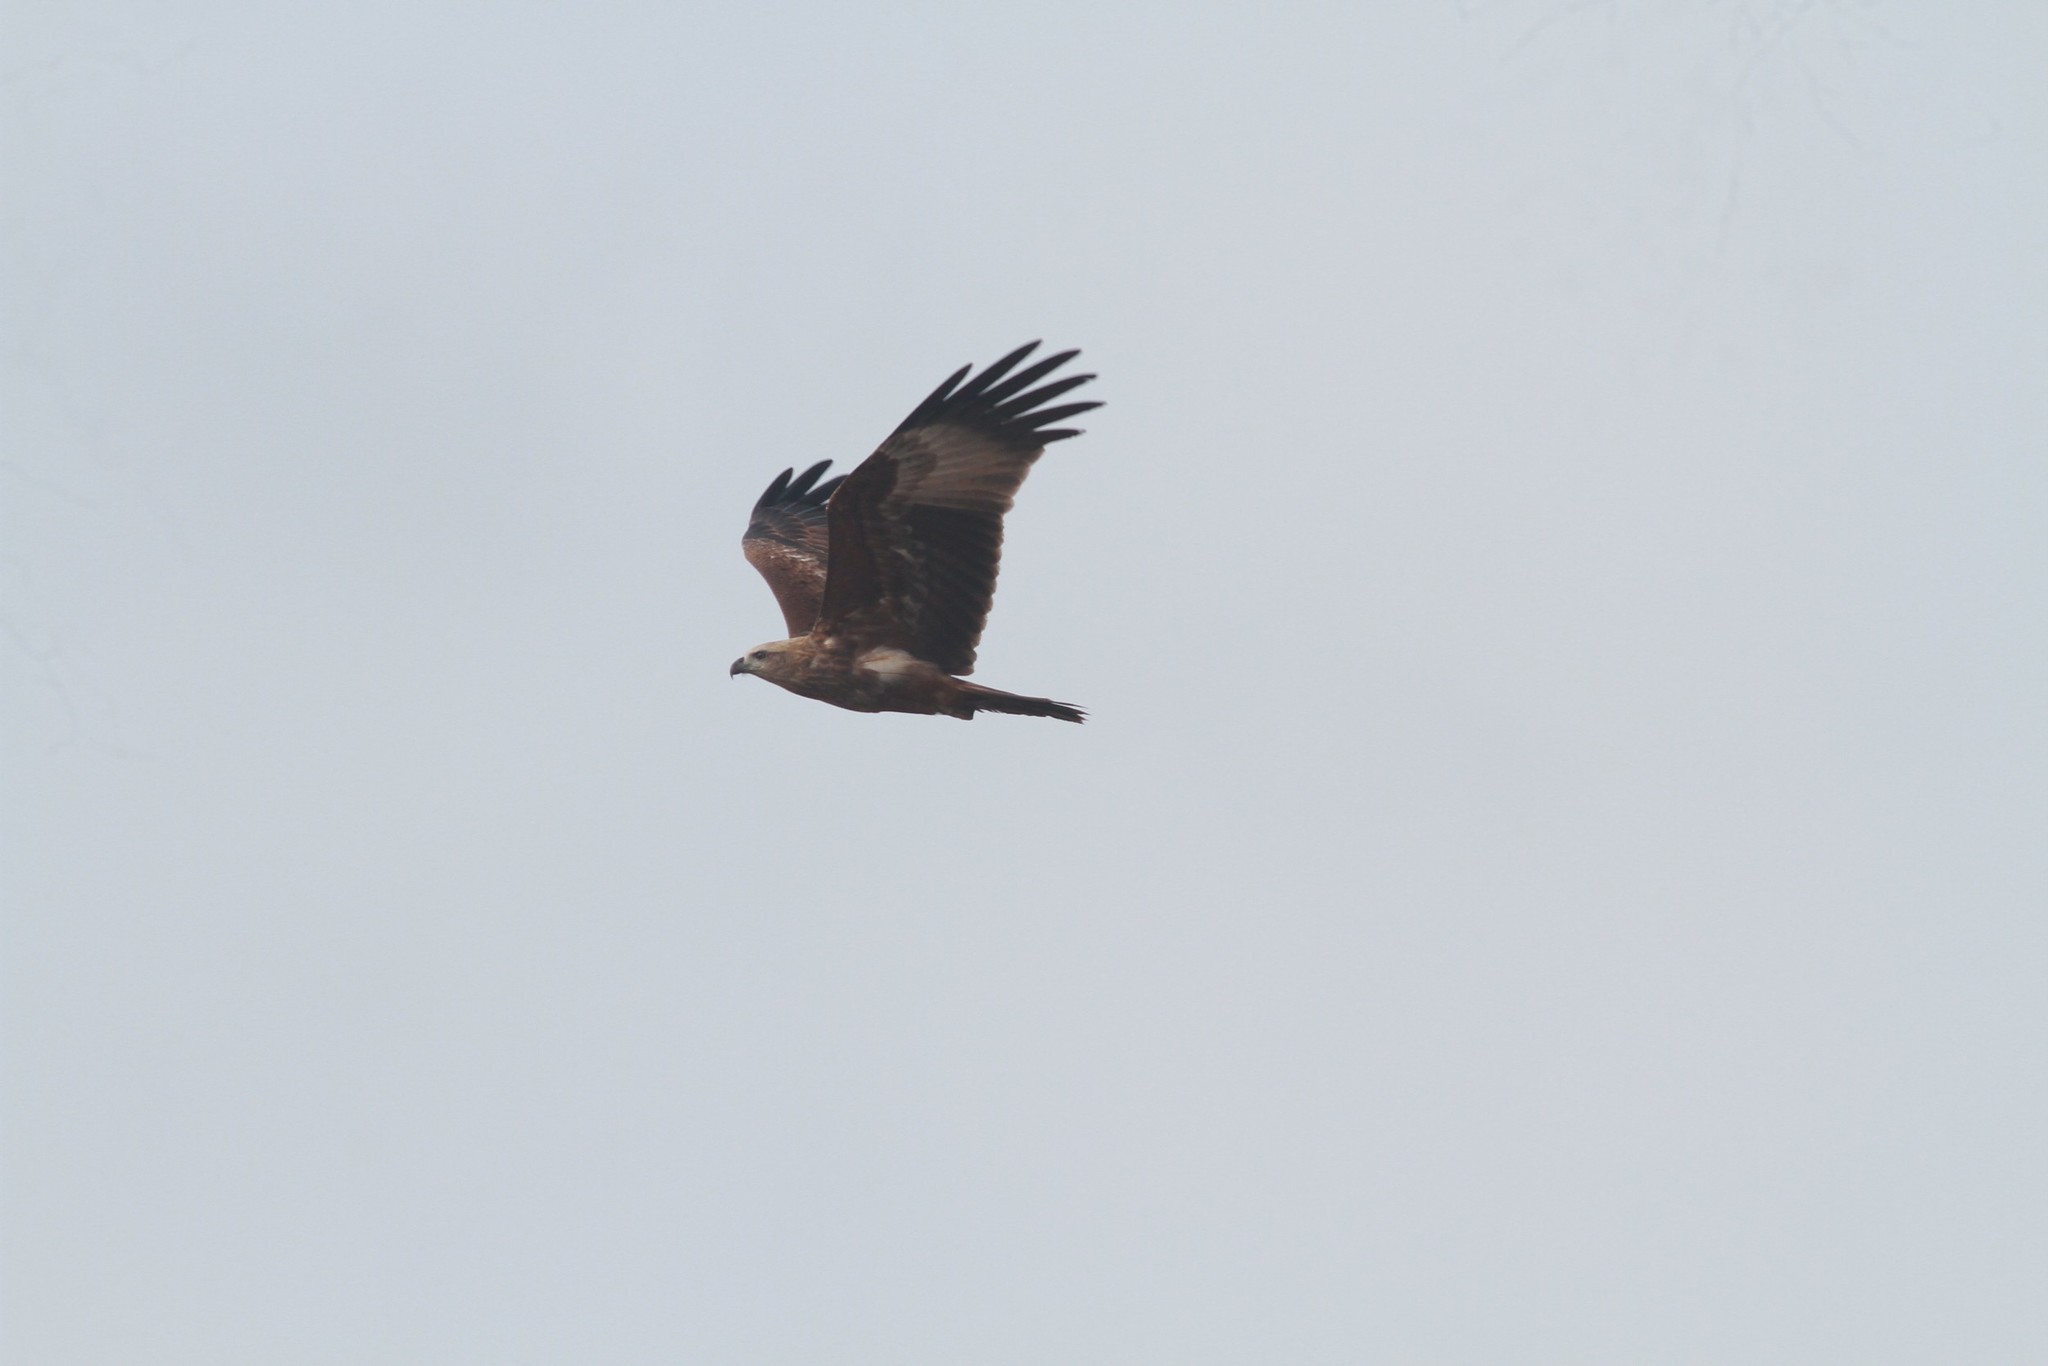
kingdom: Animalia
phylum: Chordata
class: Aves
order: Accipitriformes
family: Accipitridae
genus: Milvus
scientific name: Milvus migrans
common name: Black kite
